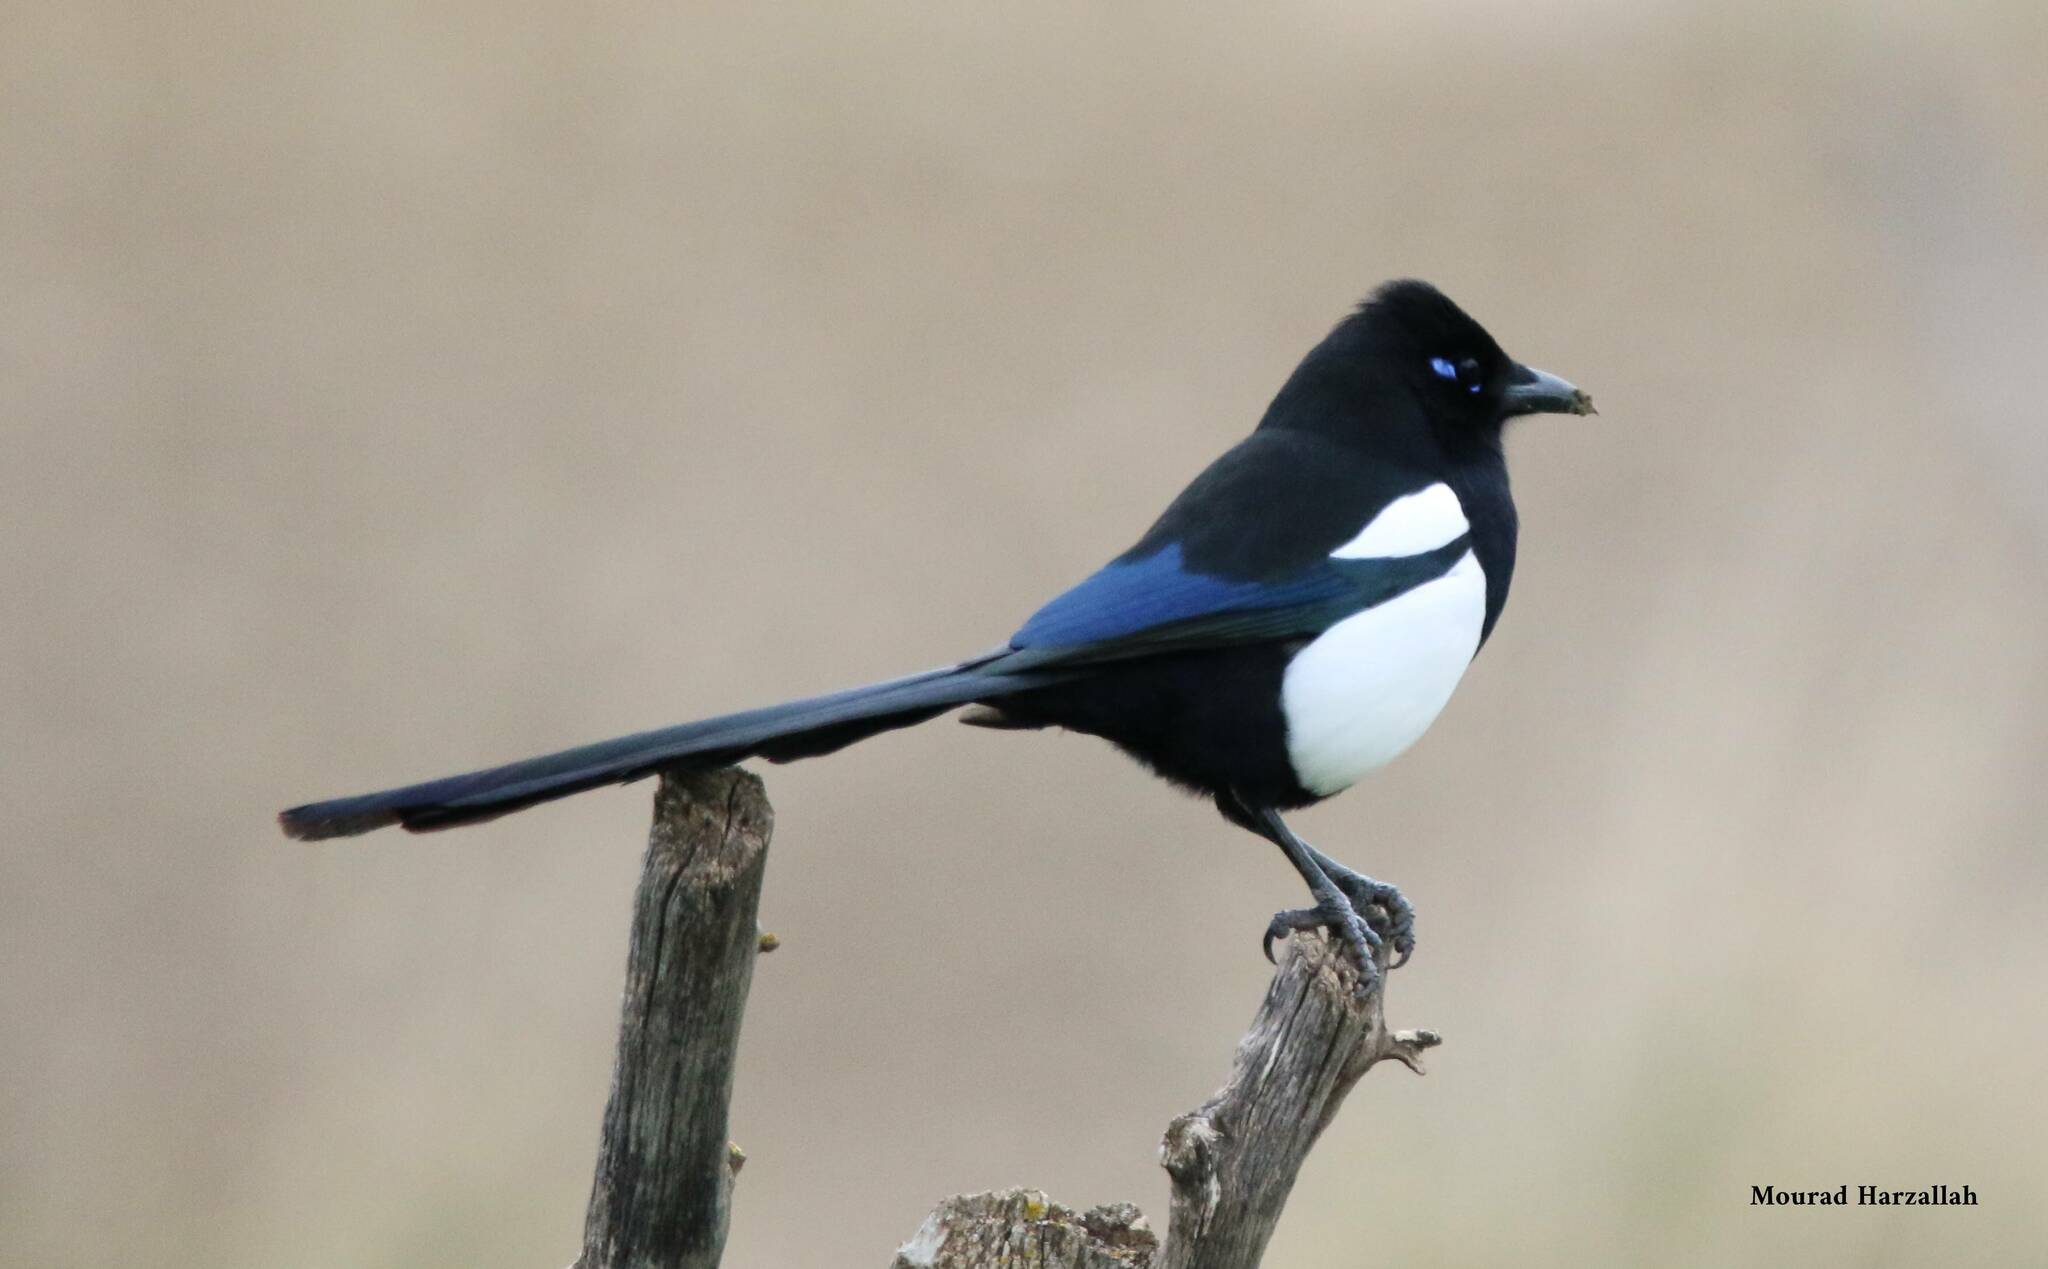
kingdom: Animalia
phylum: Chordata
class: Aves
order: Passeriformes
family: Corvidae
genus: Pica
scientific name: Pica mauritanica
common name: Maghreb magpie
